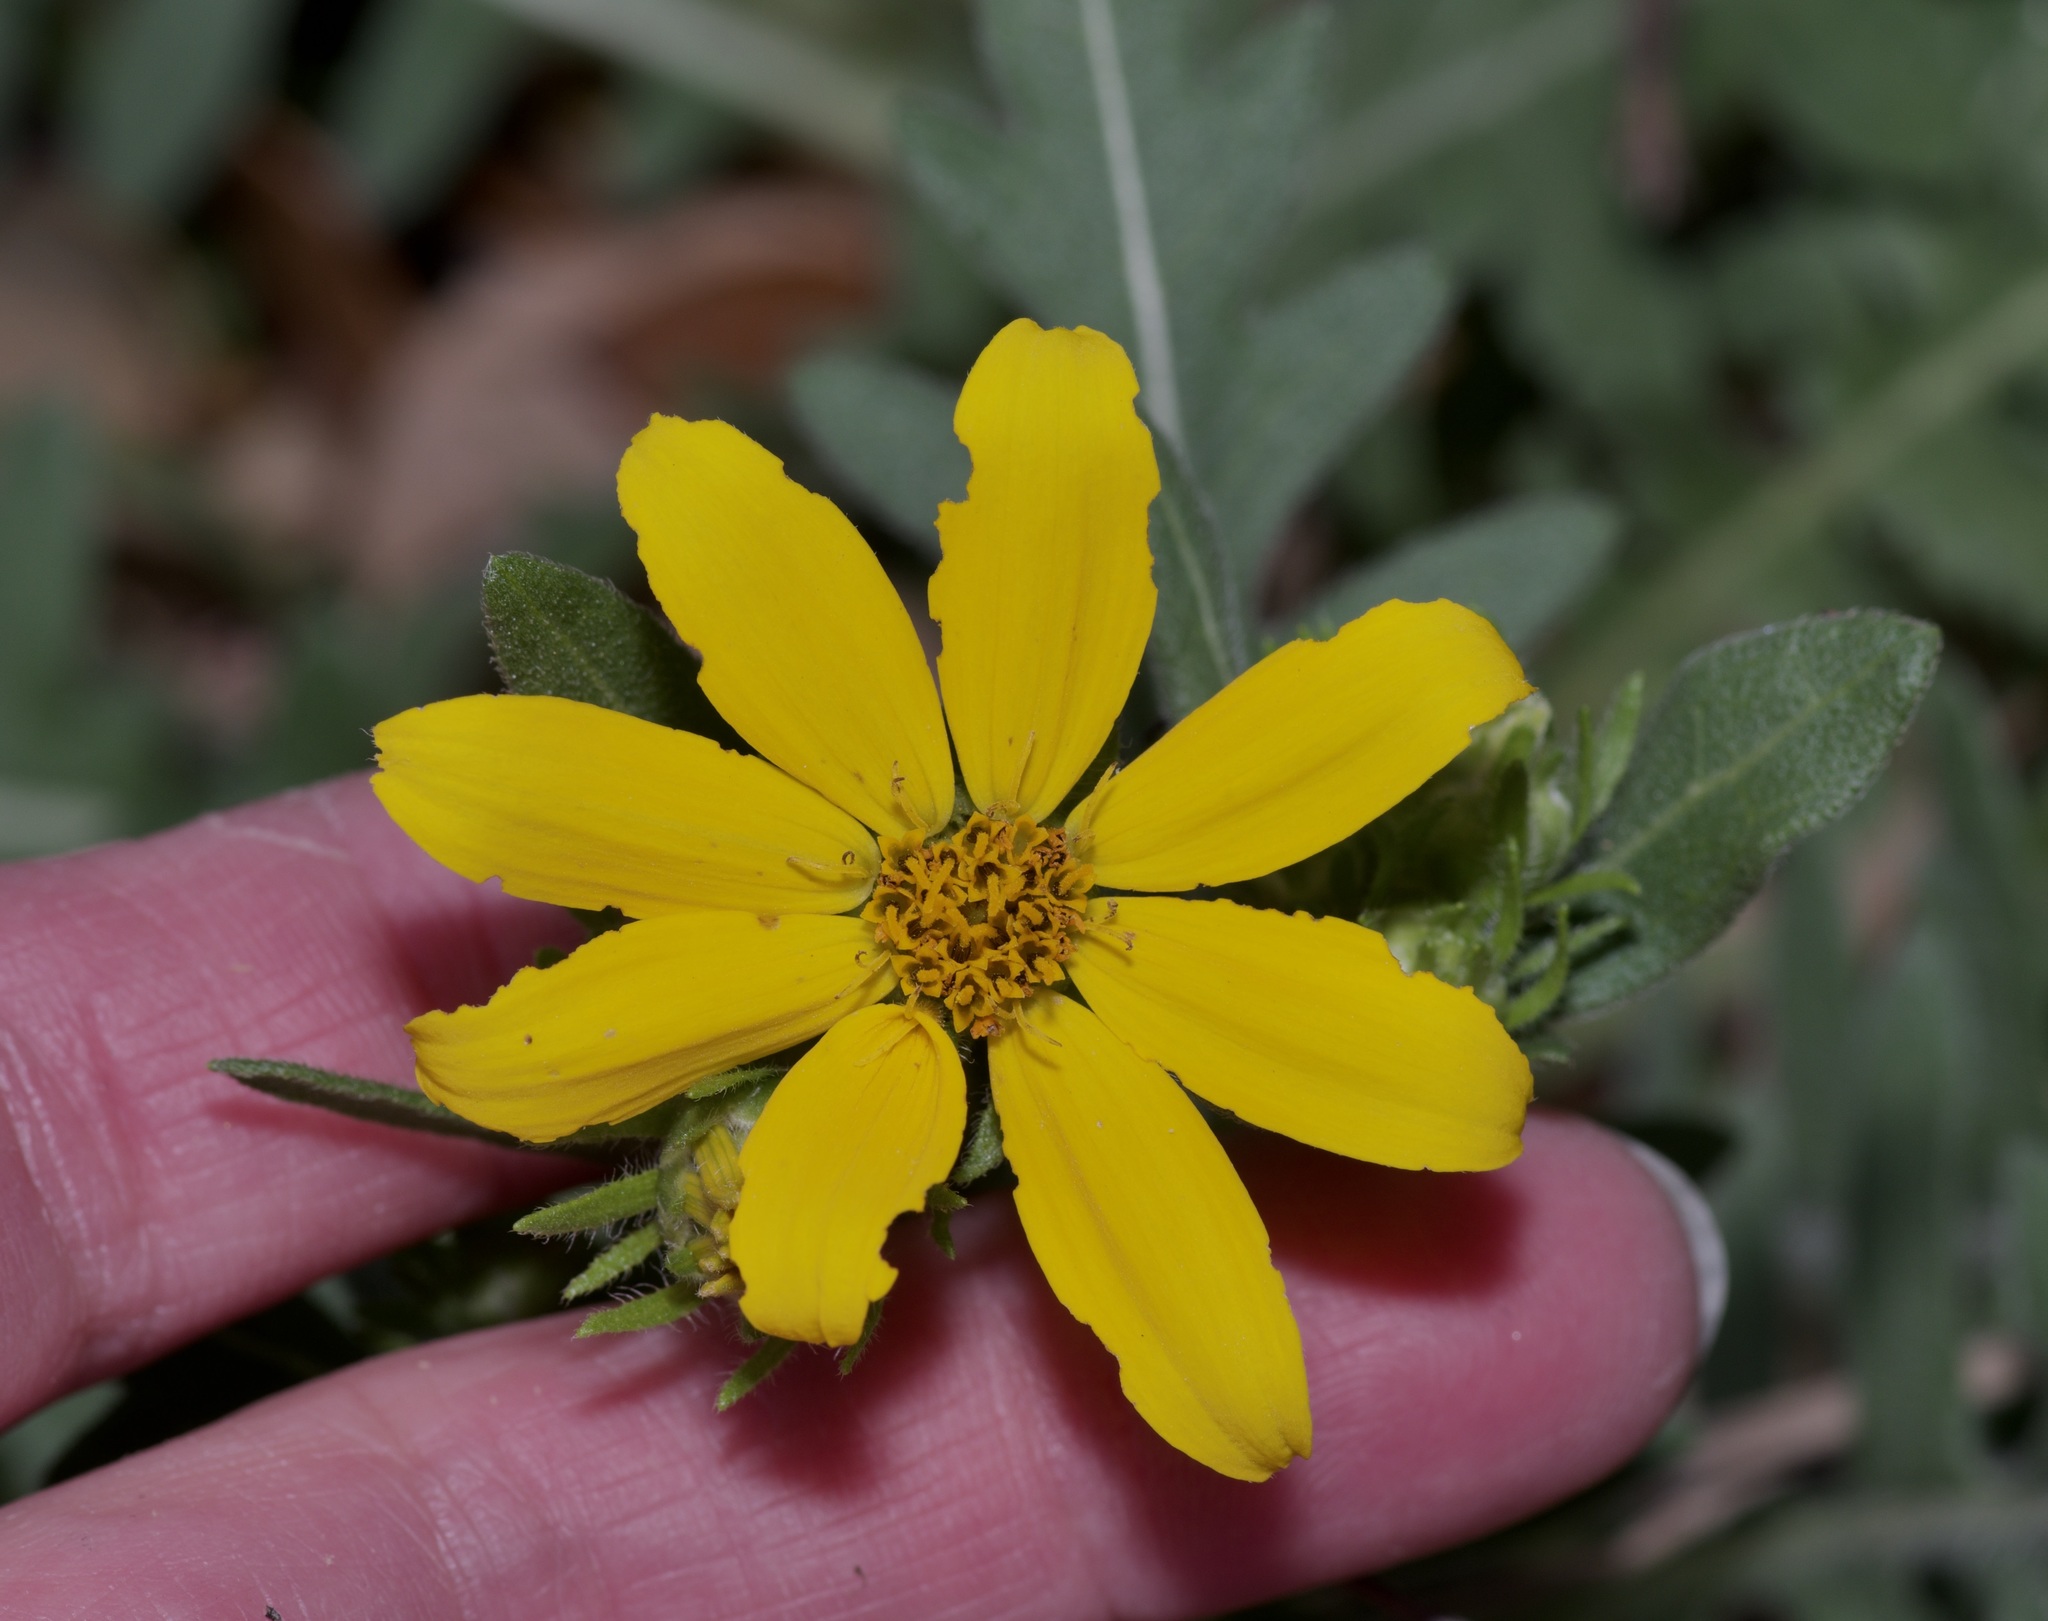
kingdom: Plantae
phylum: Tracheophyta
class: Magnoliopsida
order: Asterales
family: Asteraceae
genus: Engelmannia
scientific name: Engelmannia peristenia
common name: Engelmann's daisy
